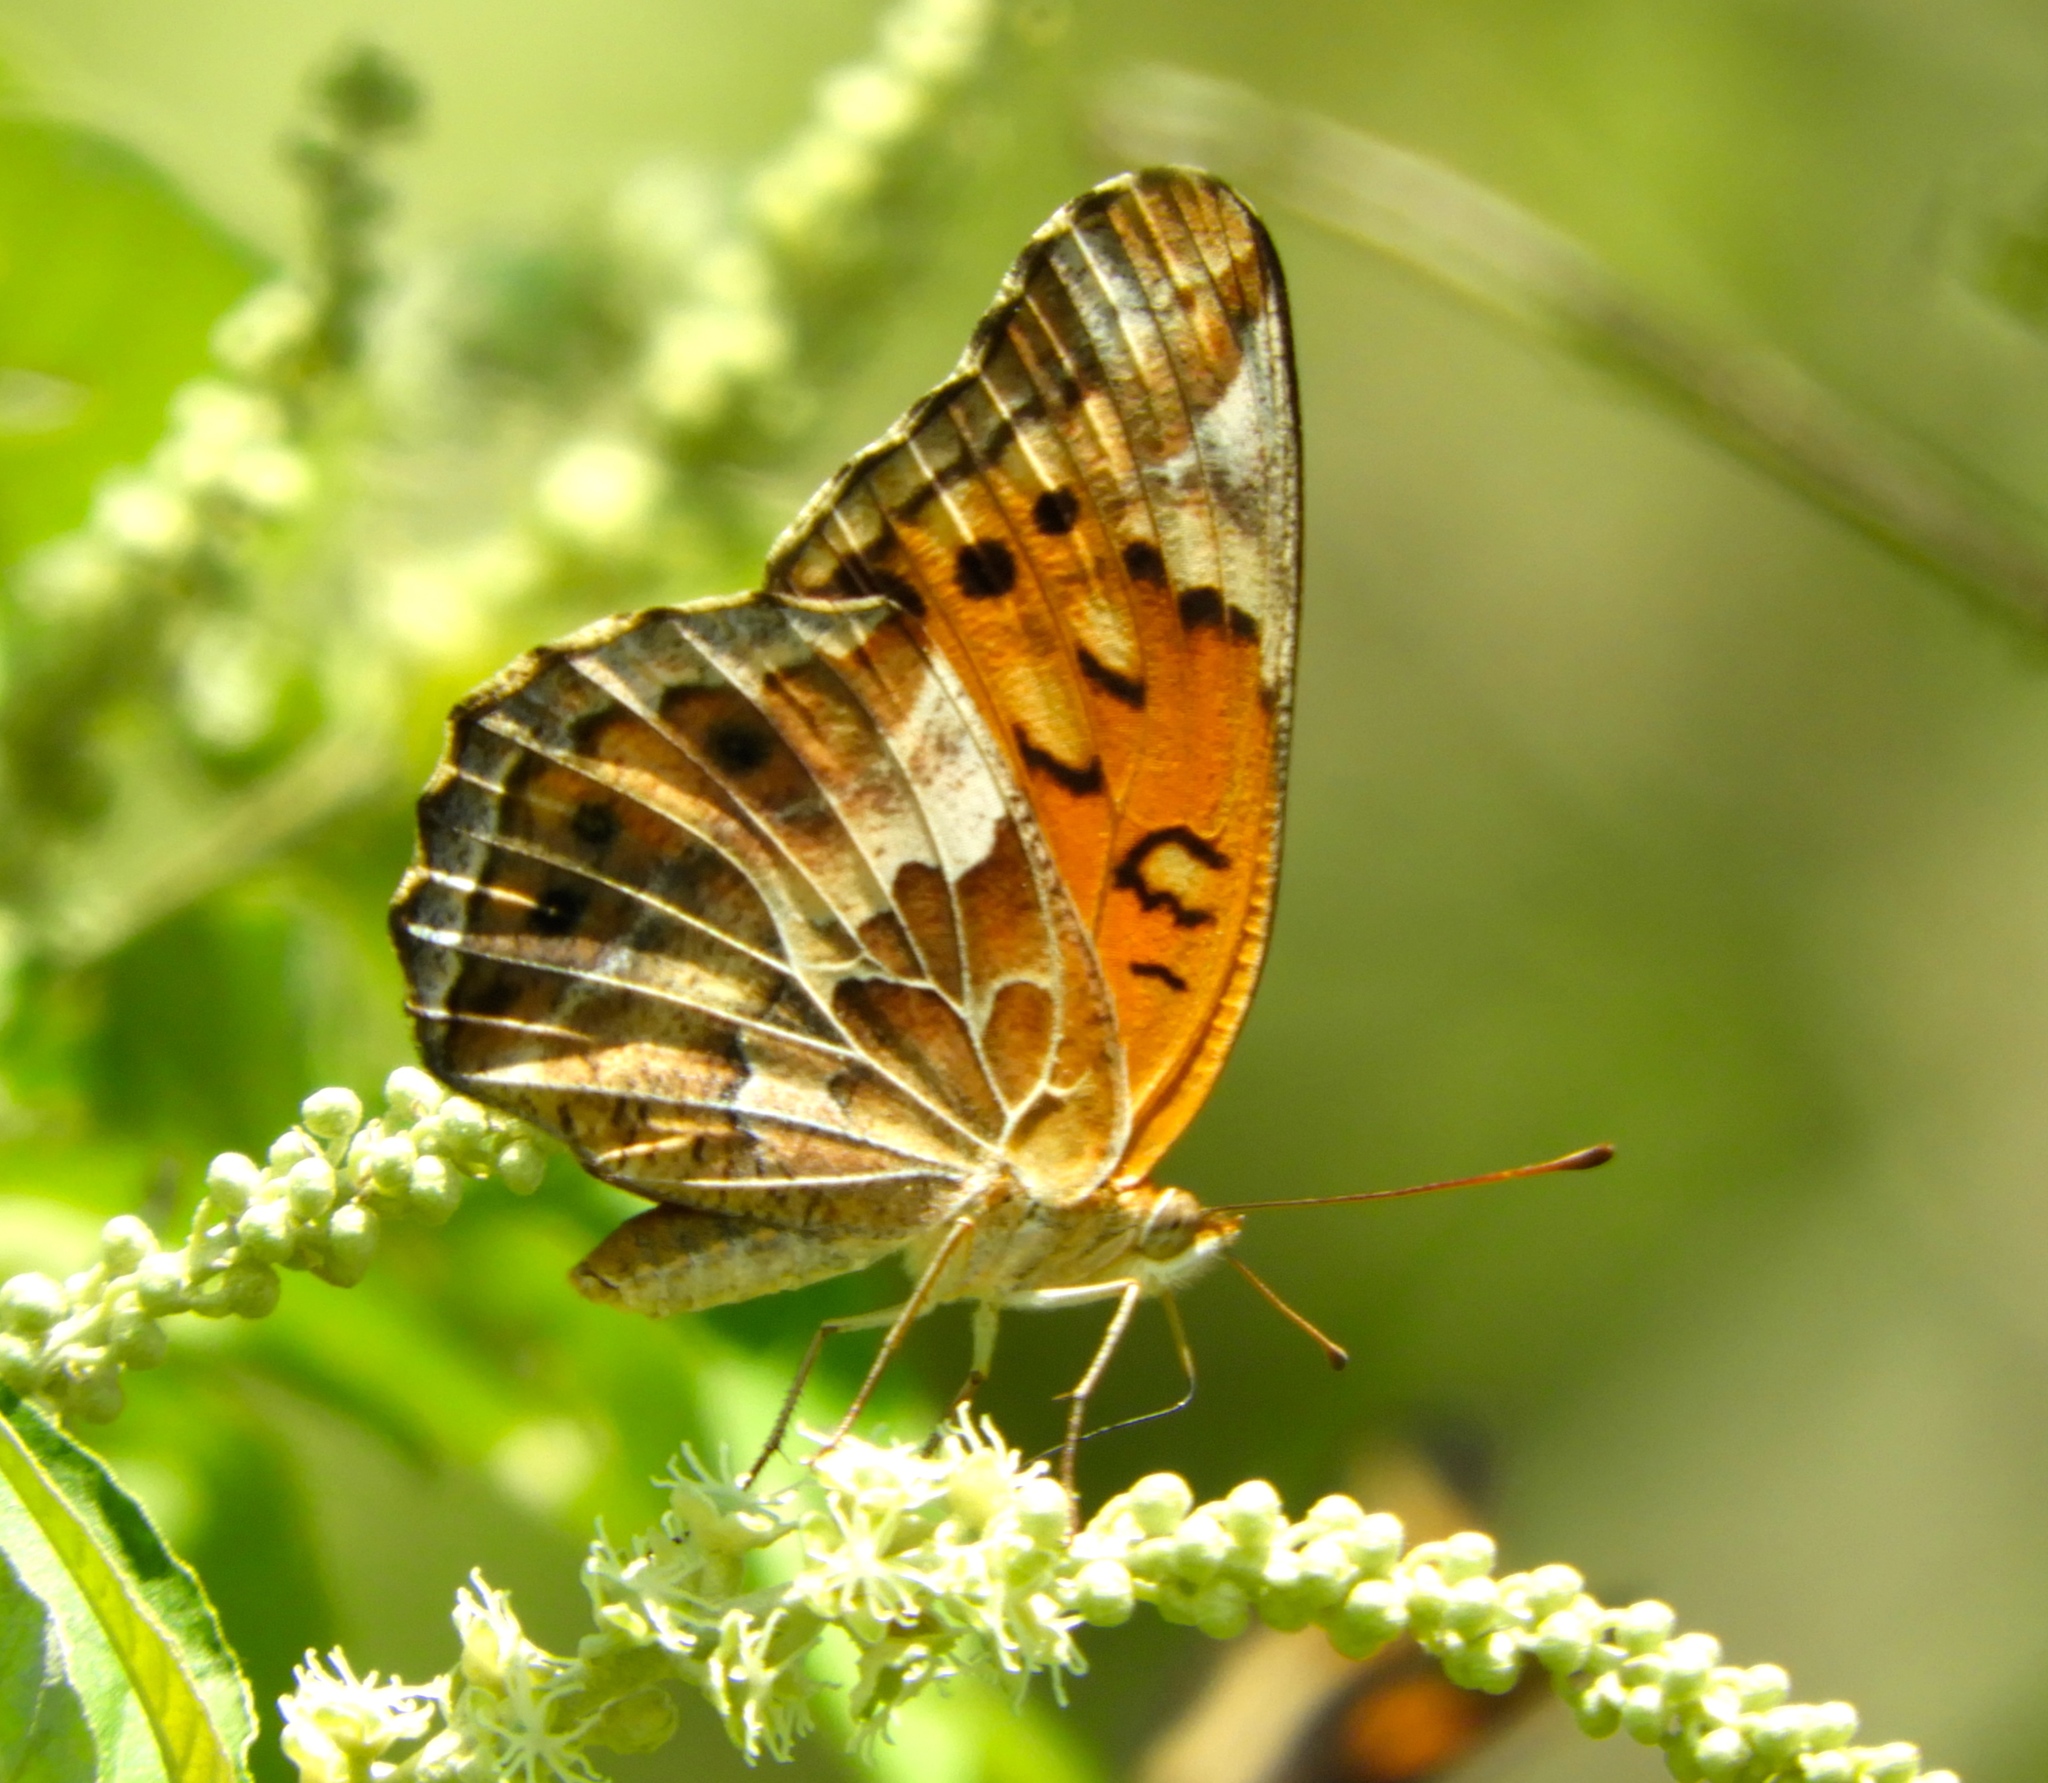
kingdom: Animalia
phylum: Arthropoda
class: Insecta
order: Lepidoptera
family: Nymphalidae
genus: Euptoieta
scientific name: Euptoieta claudia
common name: Variegated fritillary
